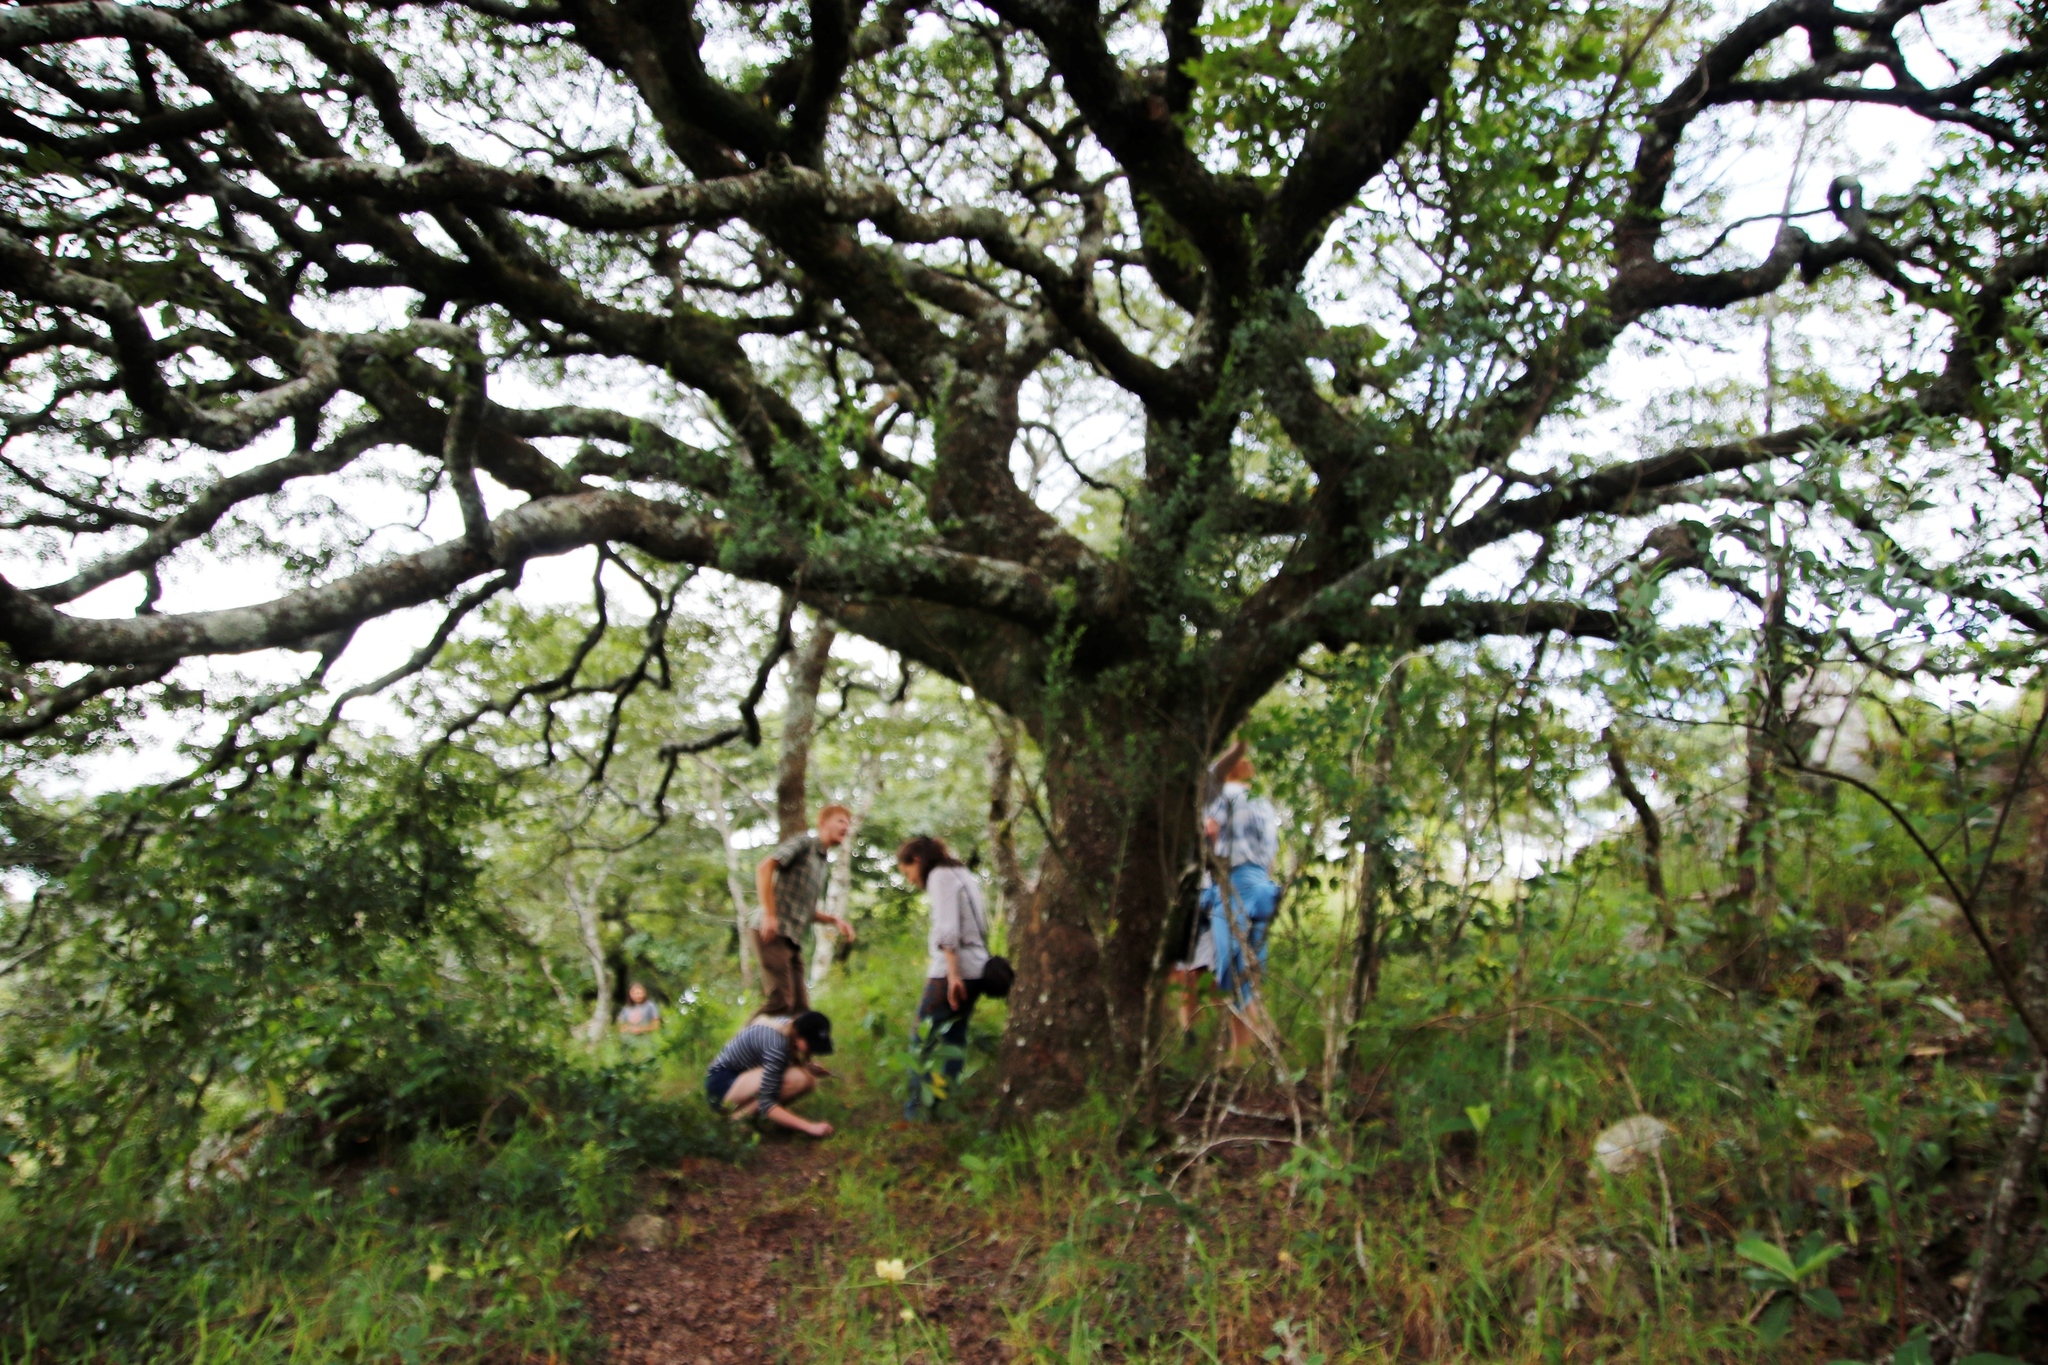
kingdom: Plantae
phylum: Tracheophyta
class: Magnoliopsida
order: Fabales
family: Fabaceae
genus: Brachystegia
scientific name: Brachystegia spiciformis
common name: Zebrawood
